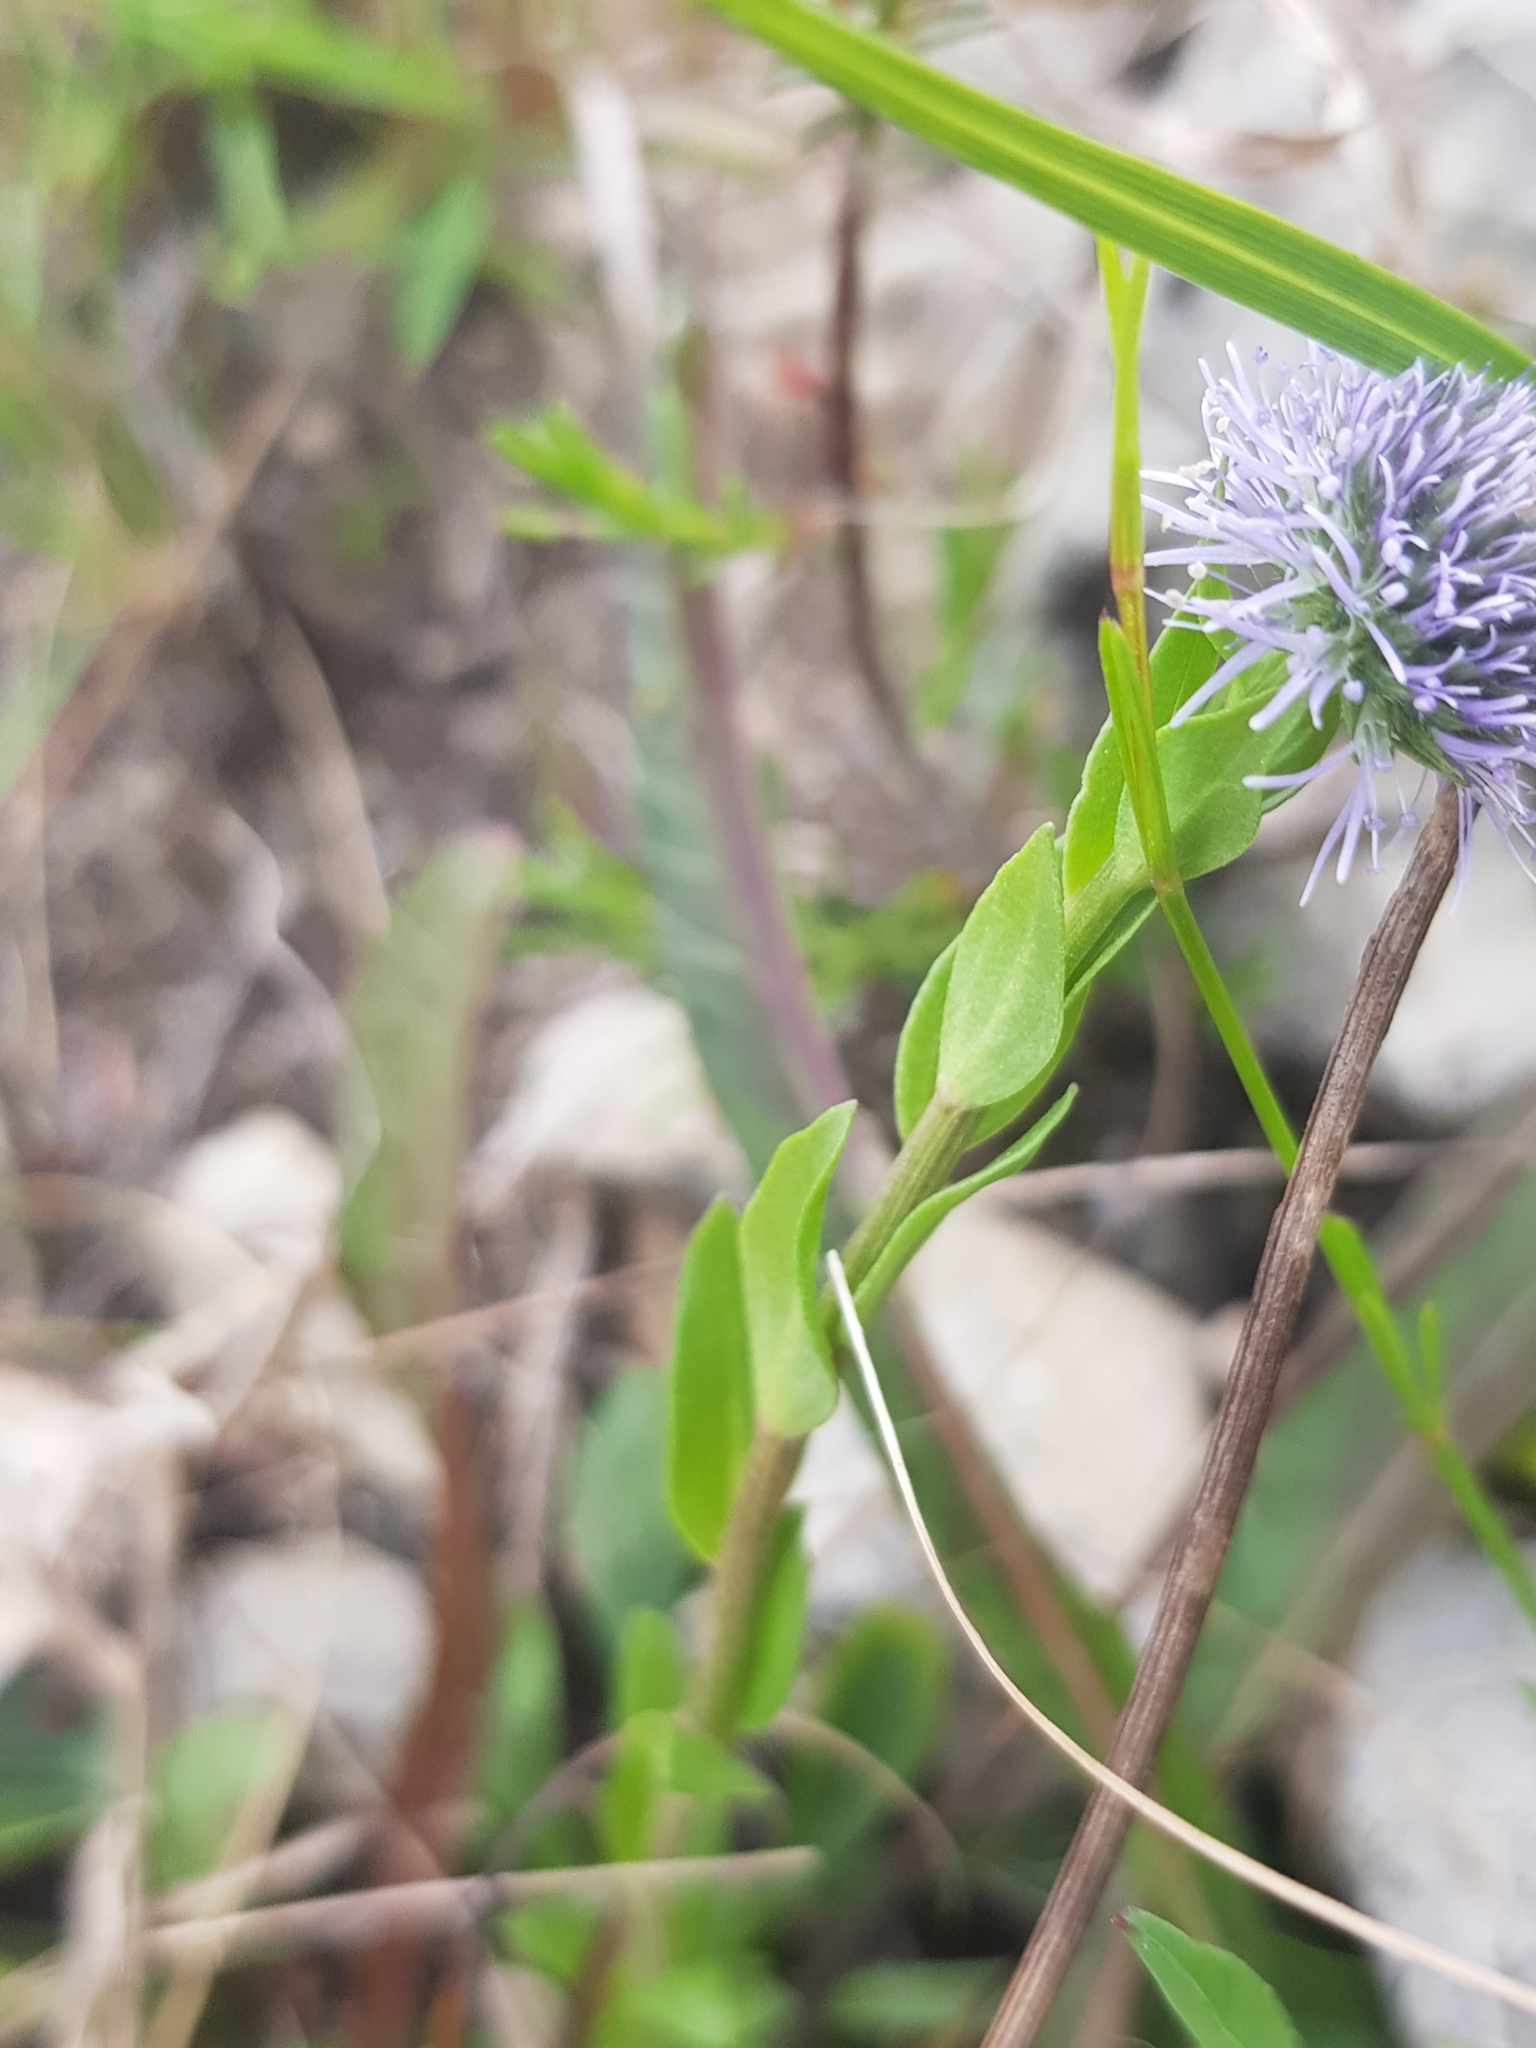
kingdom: Plantae
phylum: Tracheophyta
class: Magnoliopsida
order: Lamiales
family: Plantaginaceae
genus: Globularia
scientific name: Globularia bisnagarica
